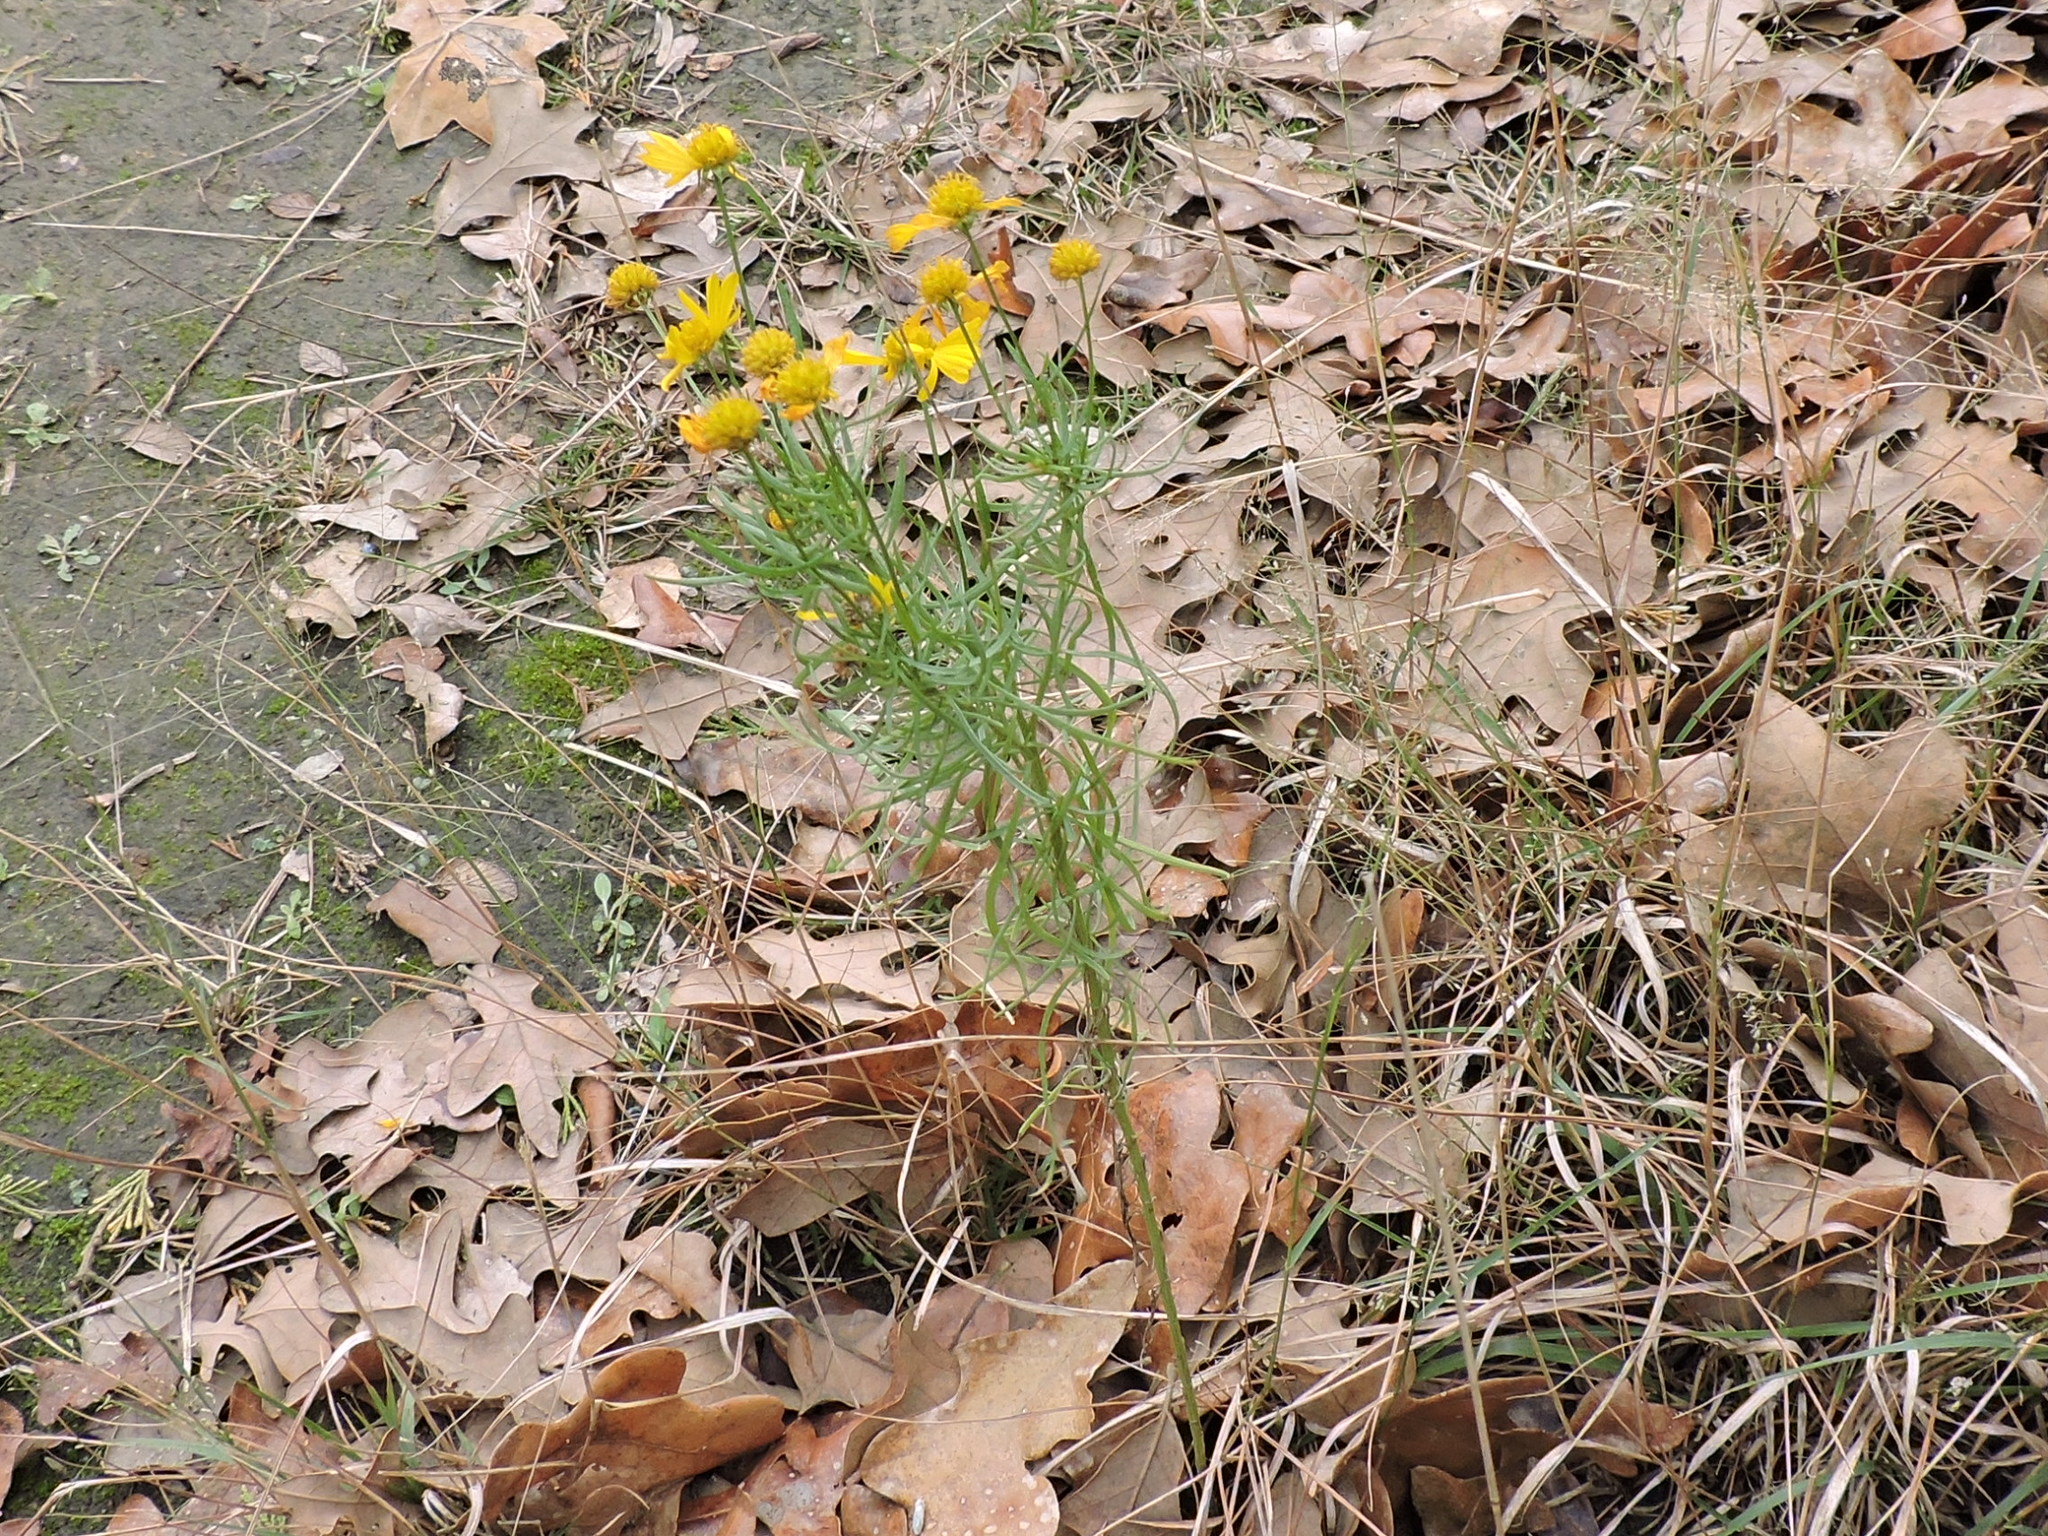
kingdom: Plantae
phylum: Tracheophyta
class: Magnoliopsida
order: Asterales
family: Asteraceae
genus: Helenium
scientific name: Helenium amarum
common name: Bitter sneezeweed
